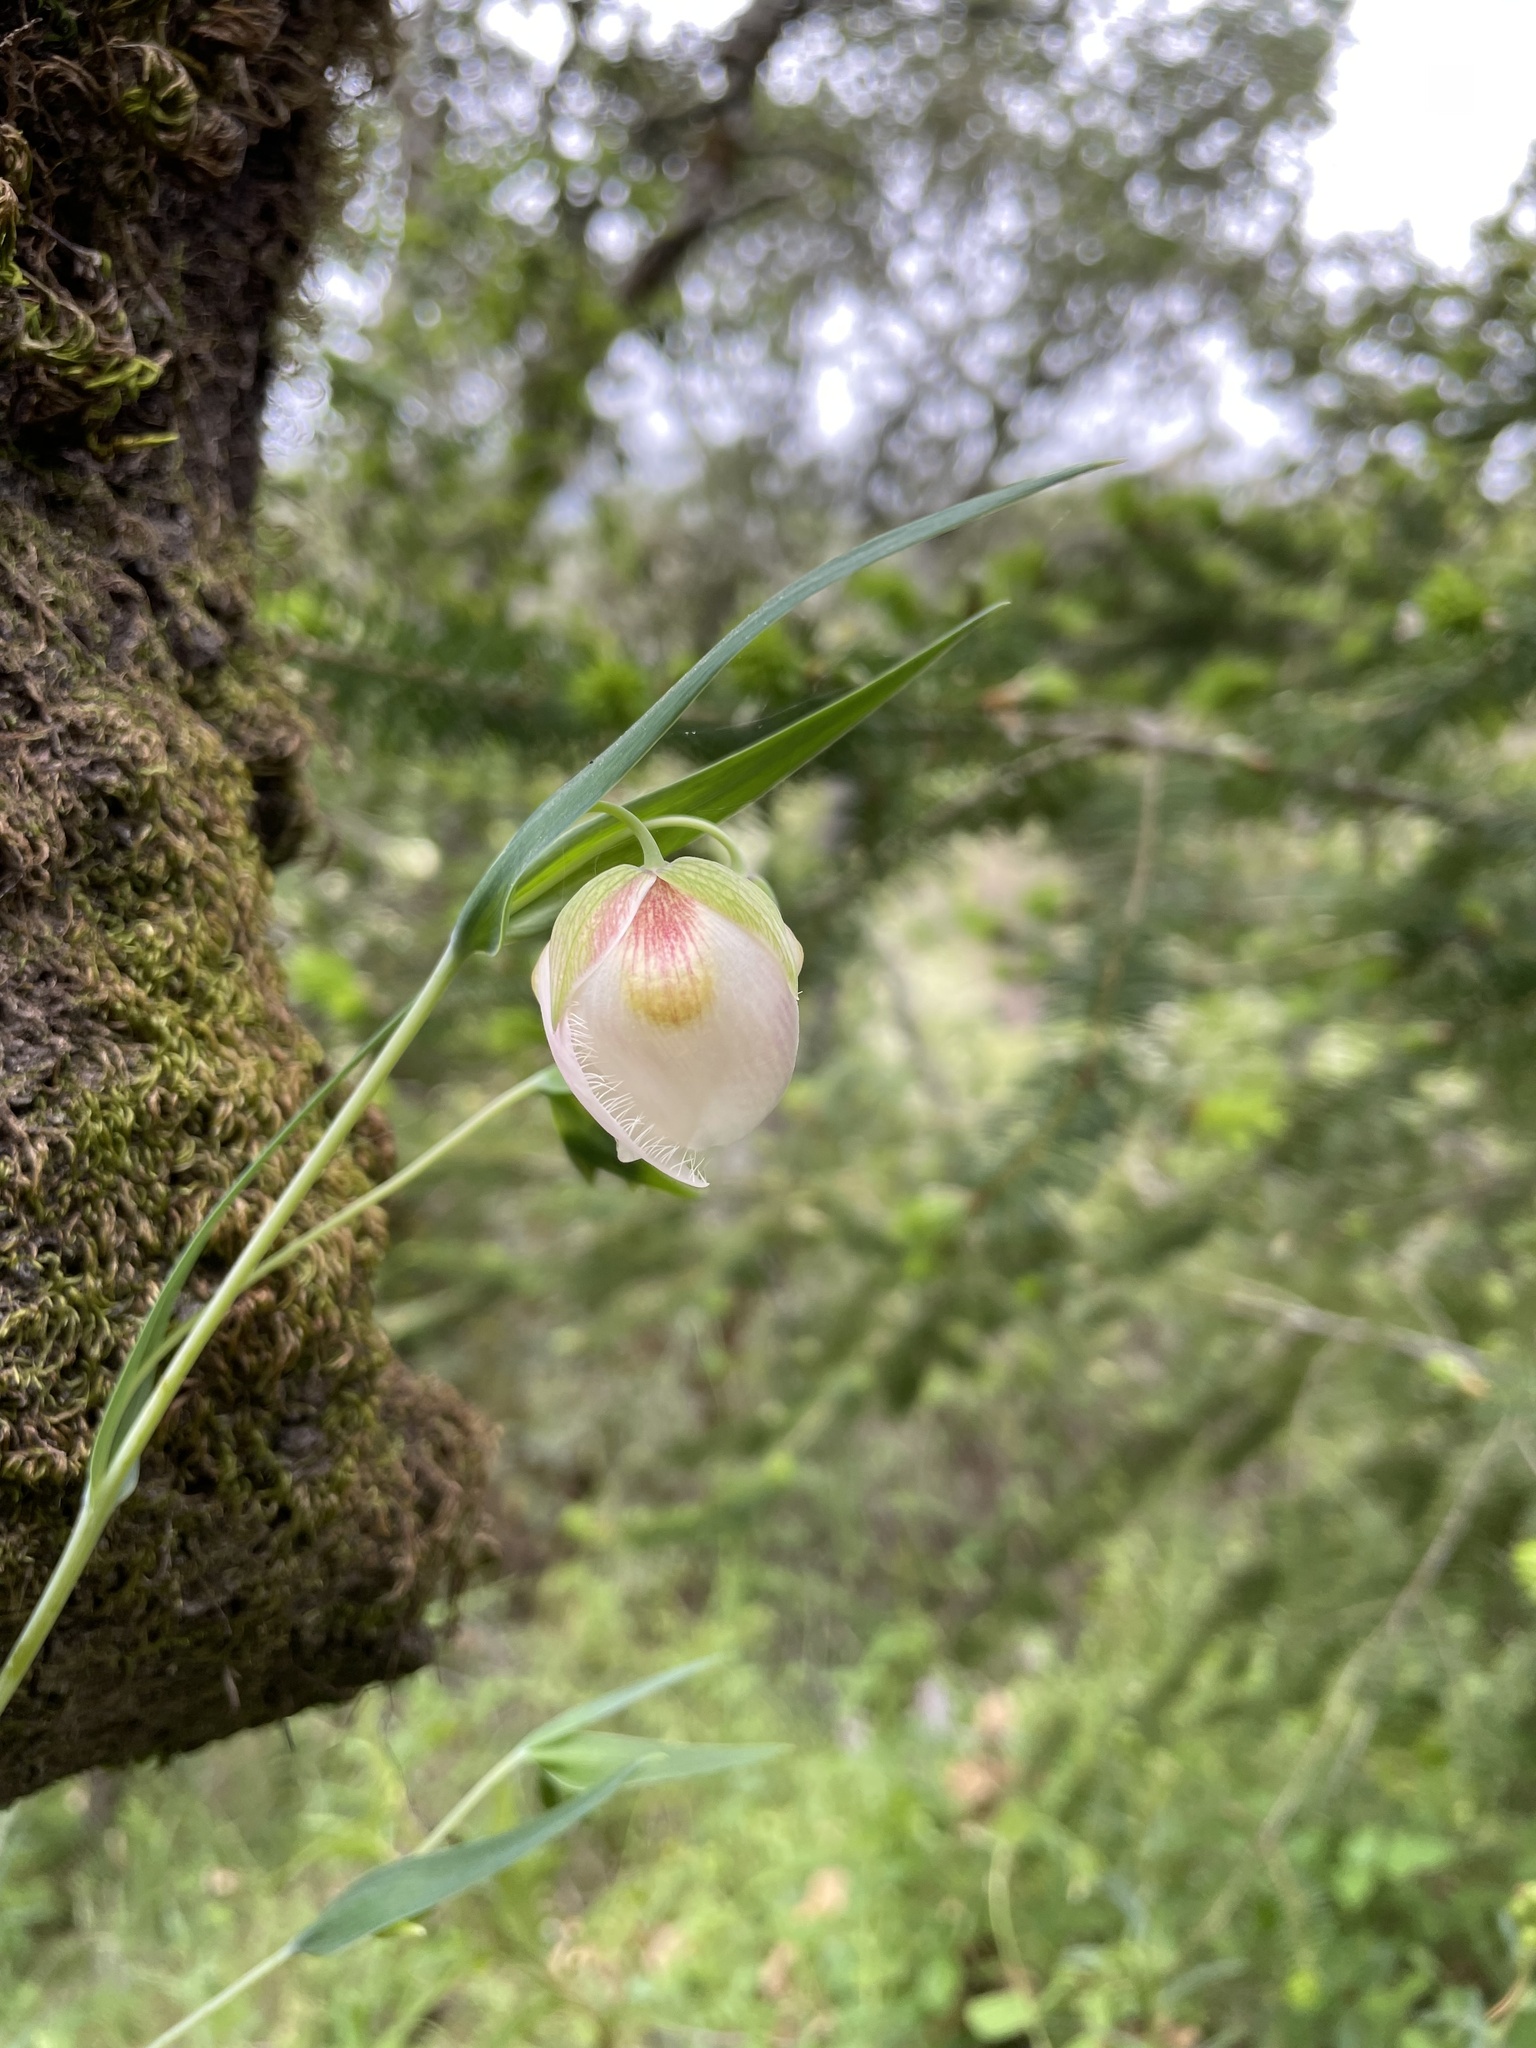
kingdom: Plantae
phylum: Tracheophyta
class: Liliopsida
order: Liliales
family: Liliaceae
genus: Calochortus
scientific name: Calochortus albus
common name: Fairy-lantern
